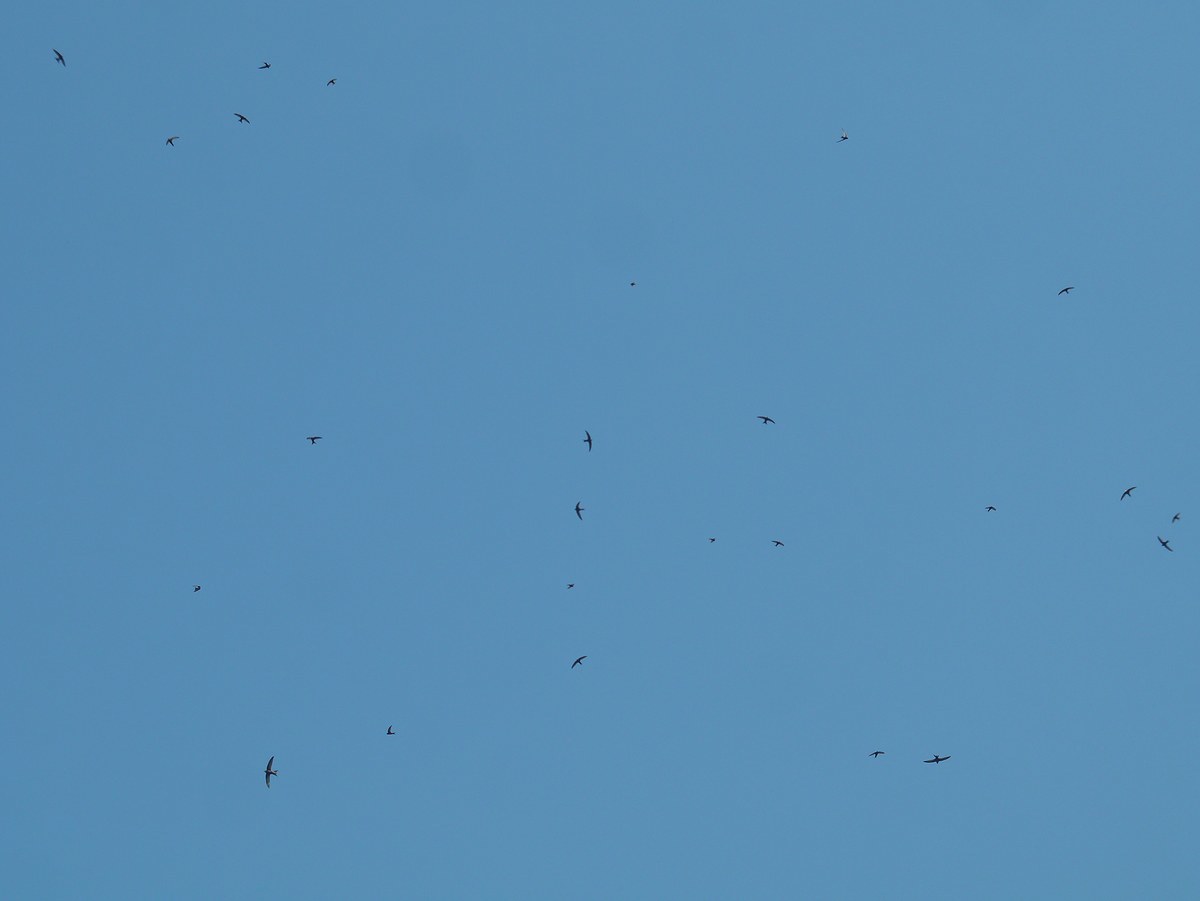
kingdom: Animalia
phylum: Chordata
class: Aves
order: Apodiformes
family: Apodidae
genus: Apus
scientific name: Apus apus
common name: Common swift
